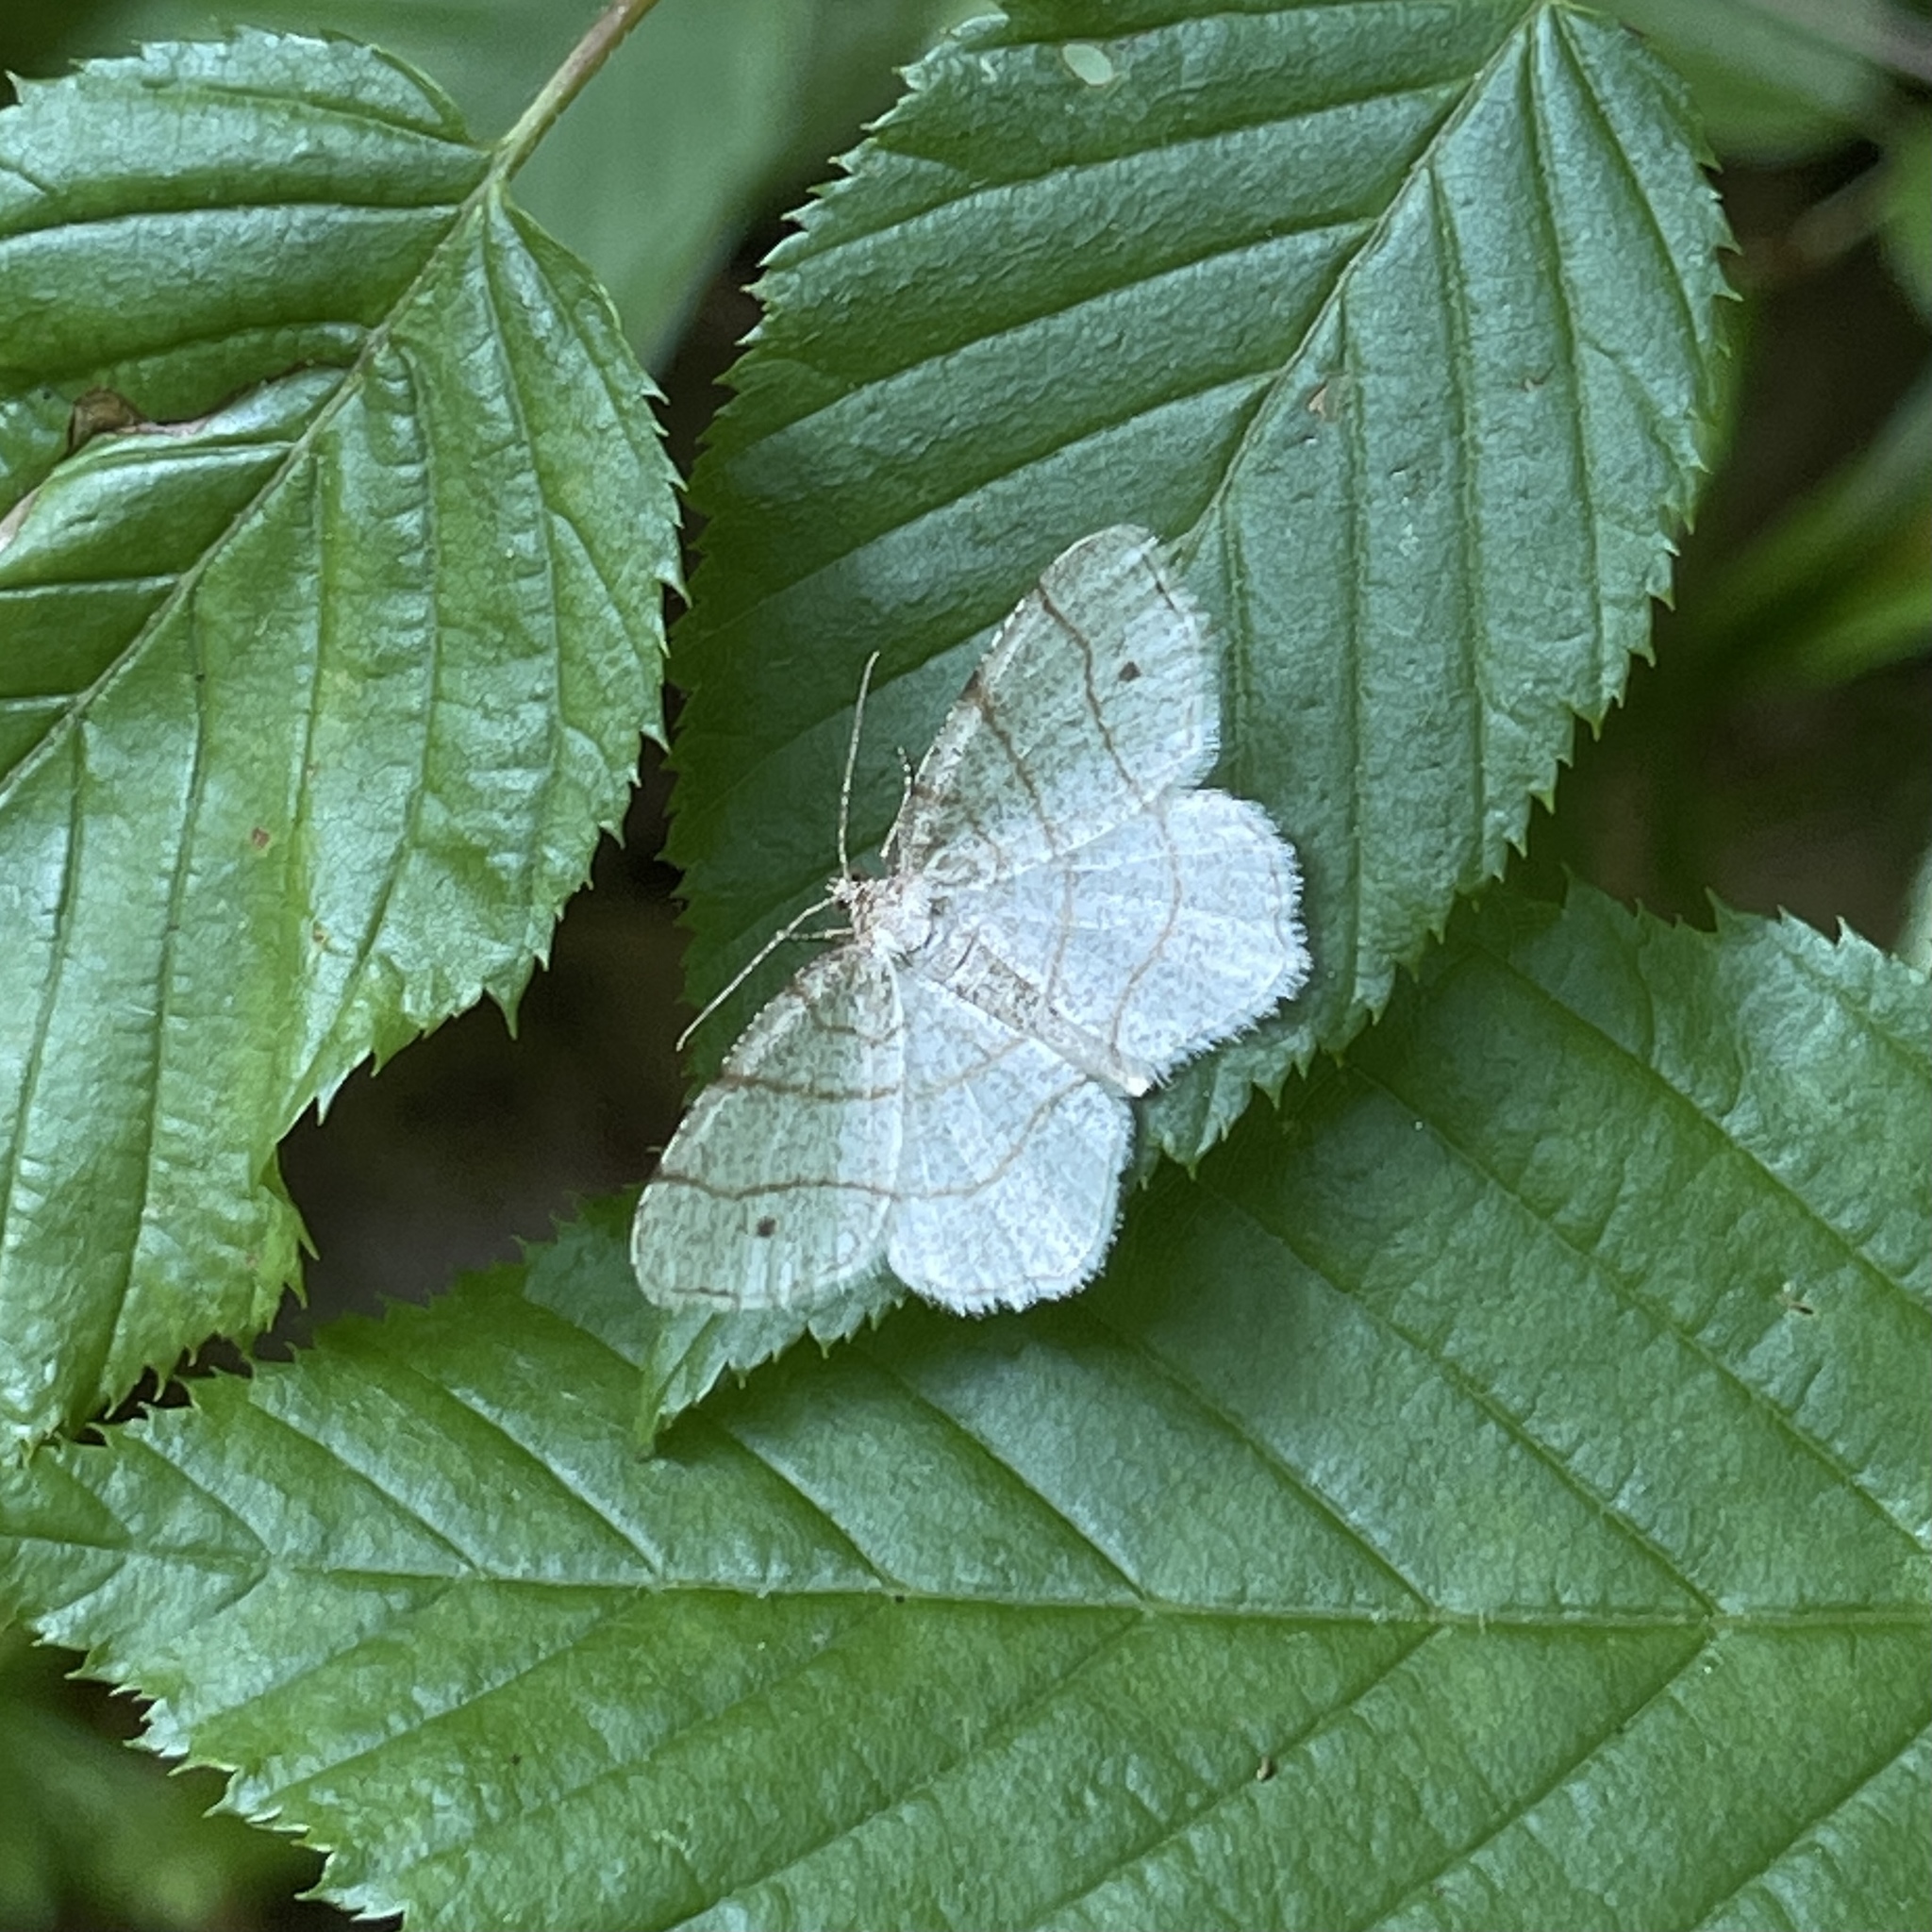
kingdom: Animalia
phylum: Arthropoda
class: Insecta
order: Lepidoptera
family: Geometridae
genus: Trigrammia
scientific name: Trigrammia quadrinotaria
